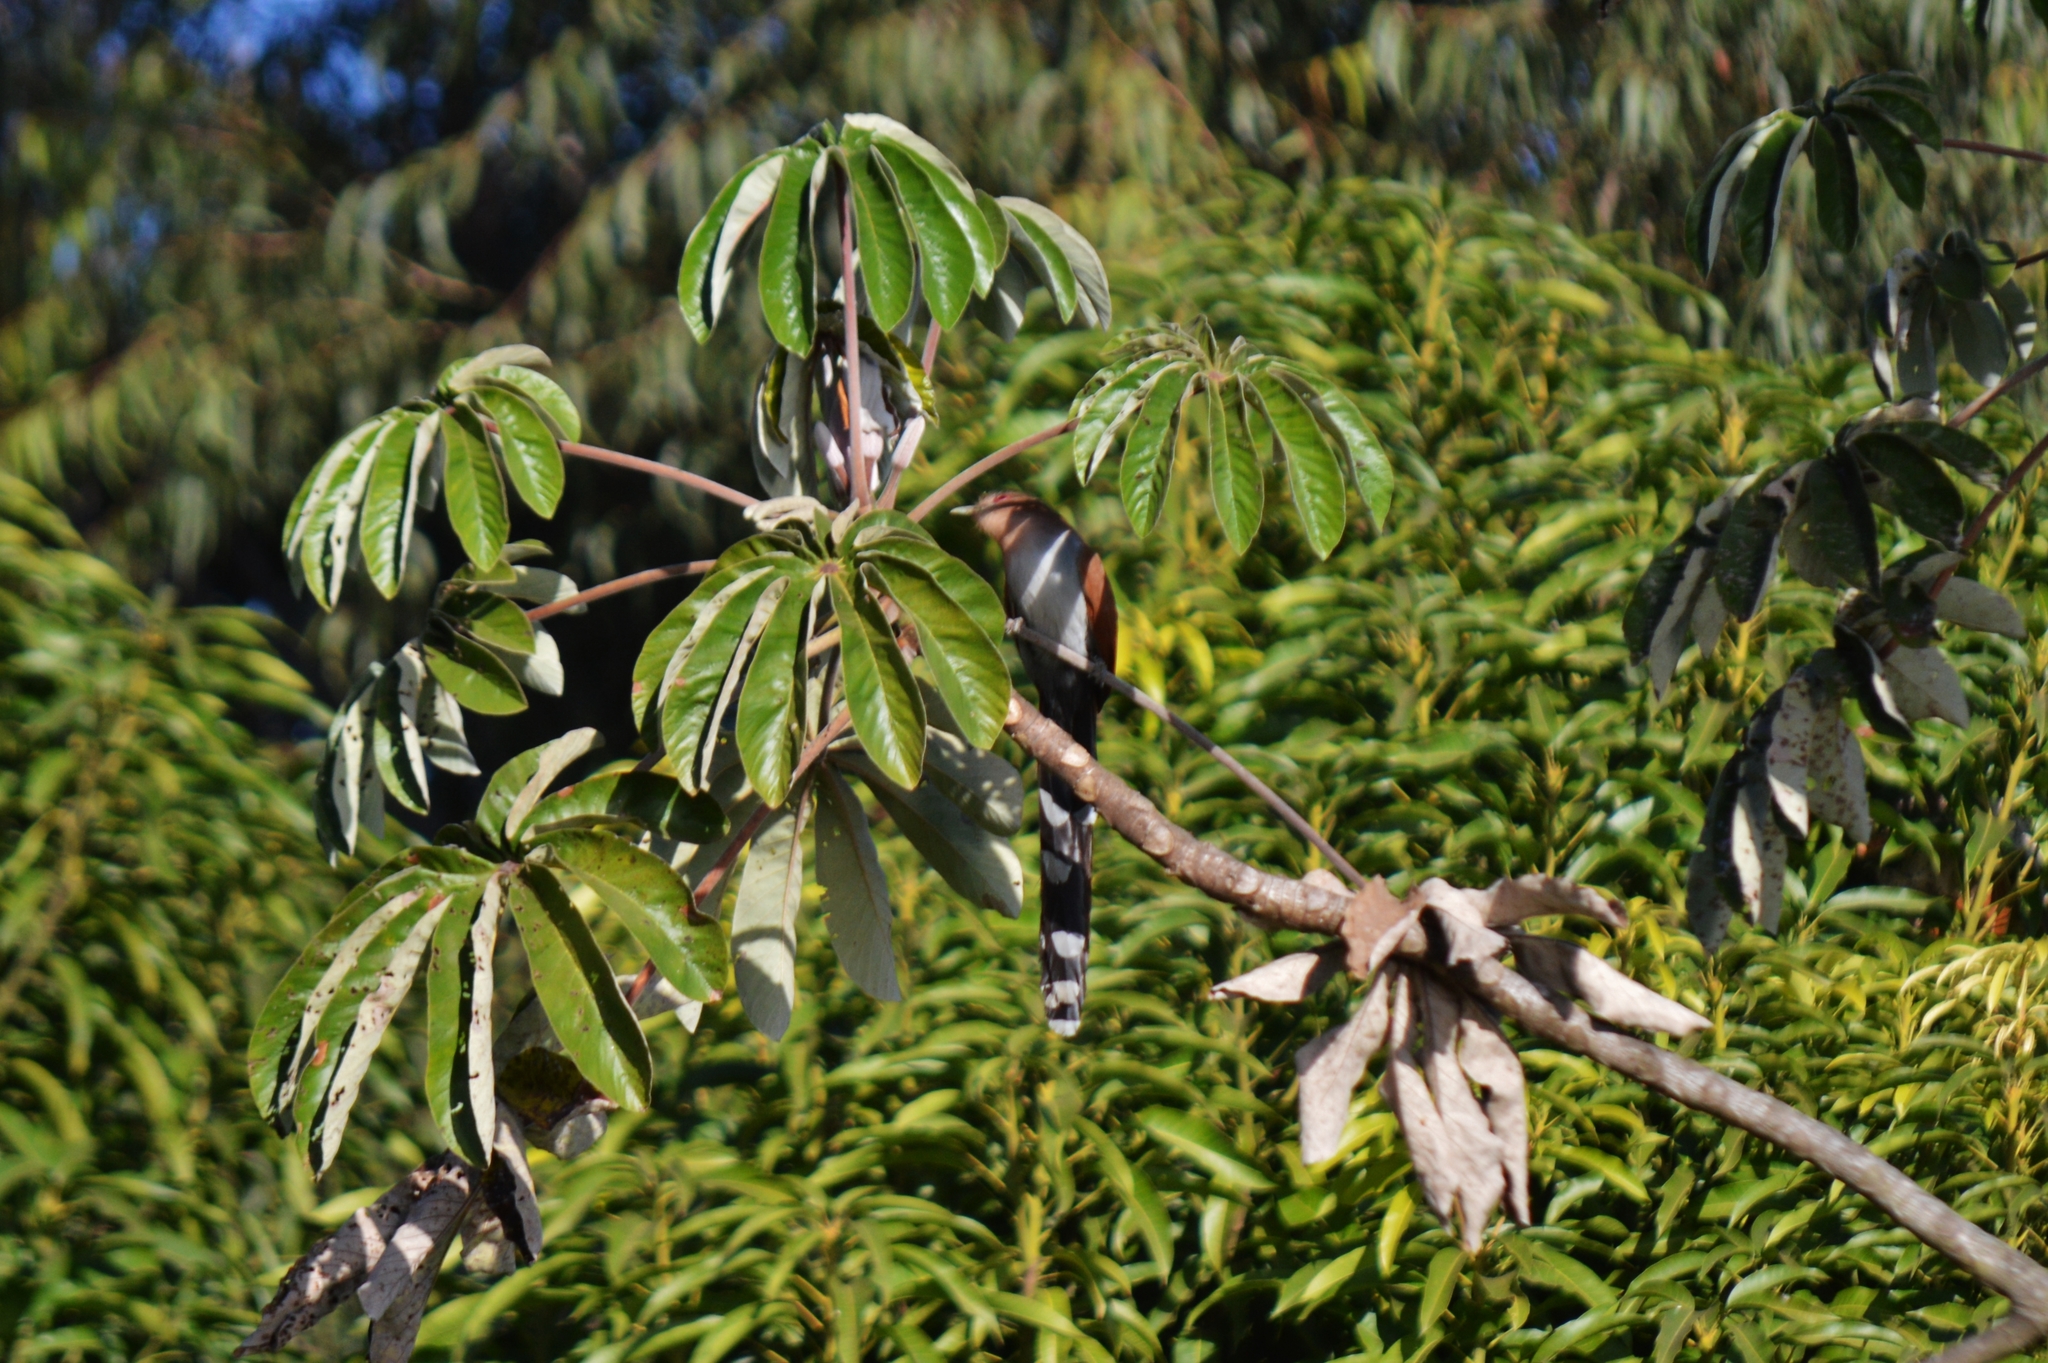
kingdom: Animalia
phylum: Chordata
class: Aves
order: Cuculiformes
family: Cuculidae
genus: Piaya
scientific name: Piaya cayana
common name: Squirrel cuckoo
